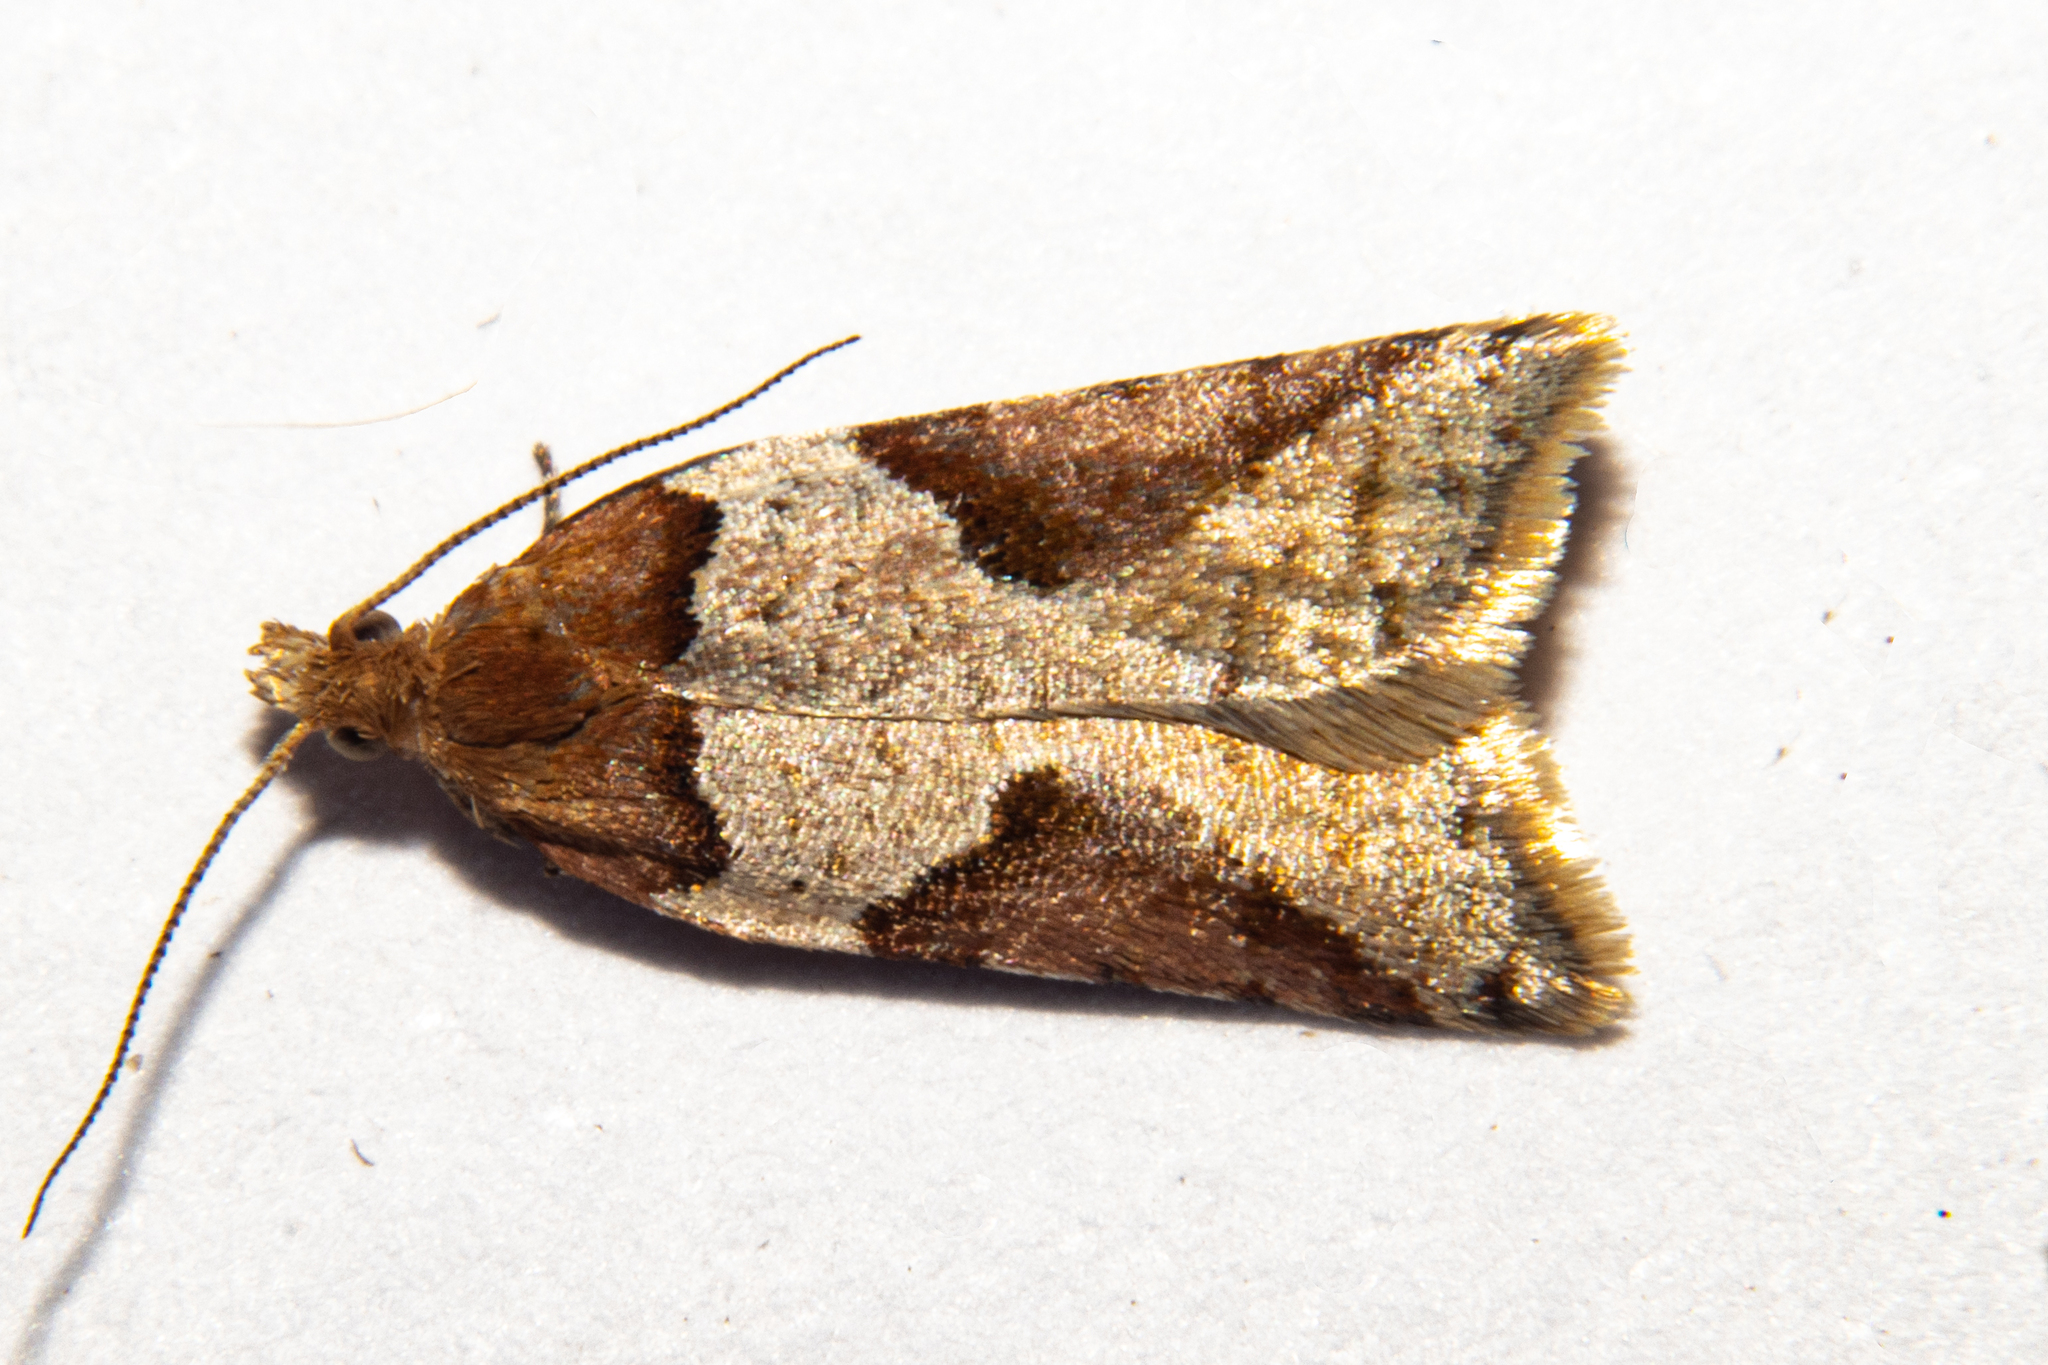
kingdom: Animalia
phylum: Arthropoda
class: Insecta
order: Lepidoptera
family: Tortricidae
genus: Epichorista
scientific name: Epichorista
